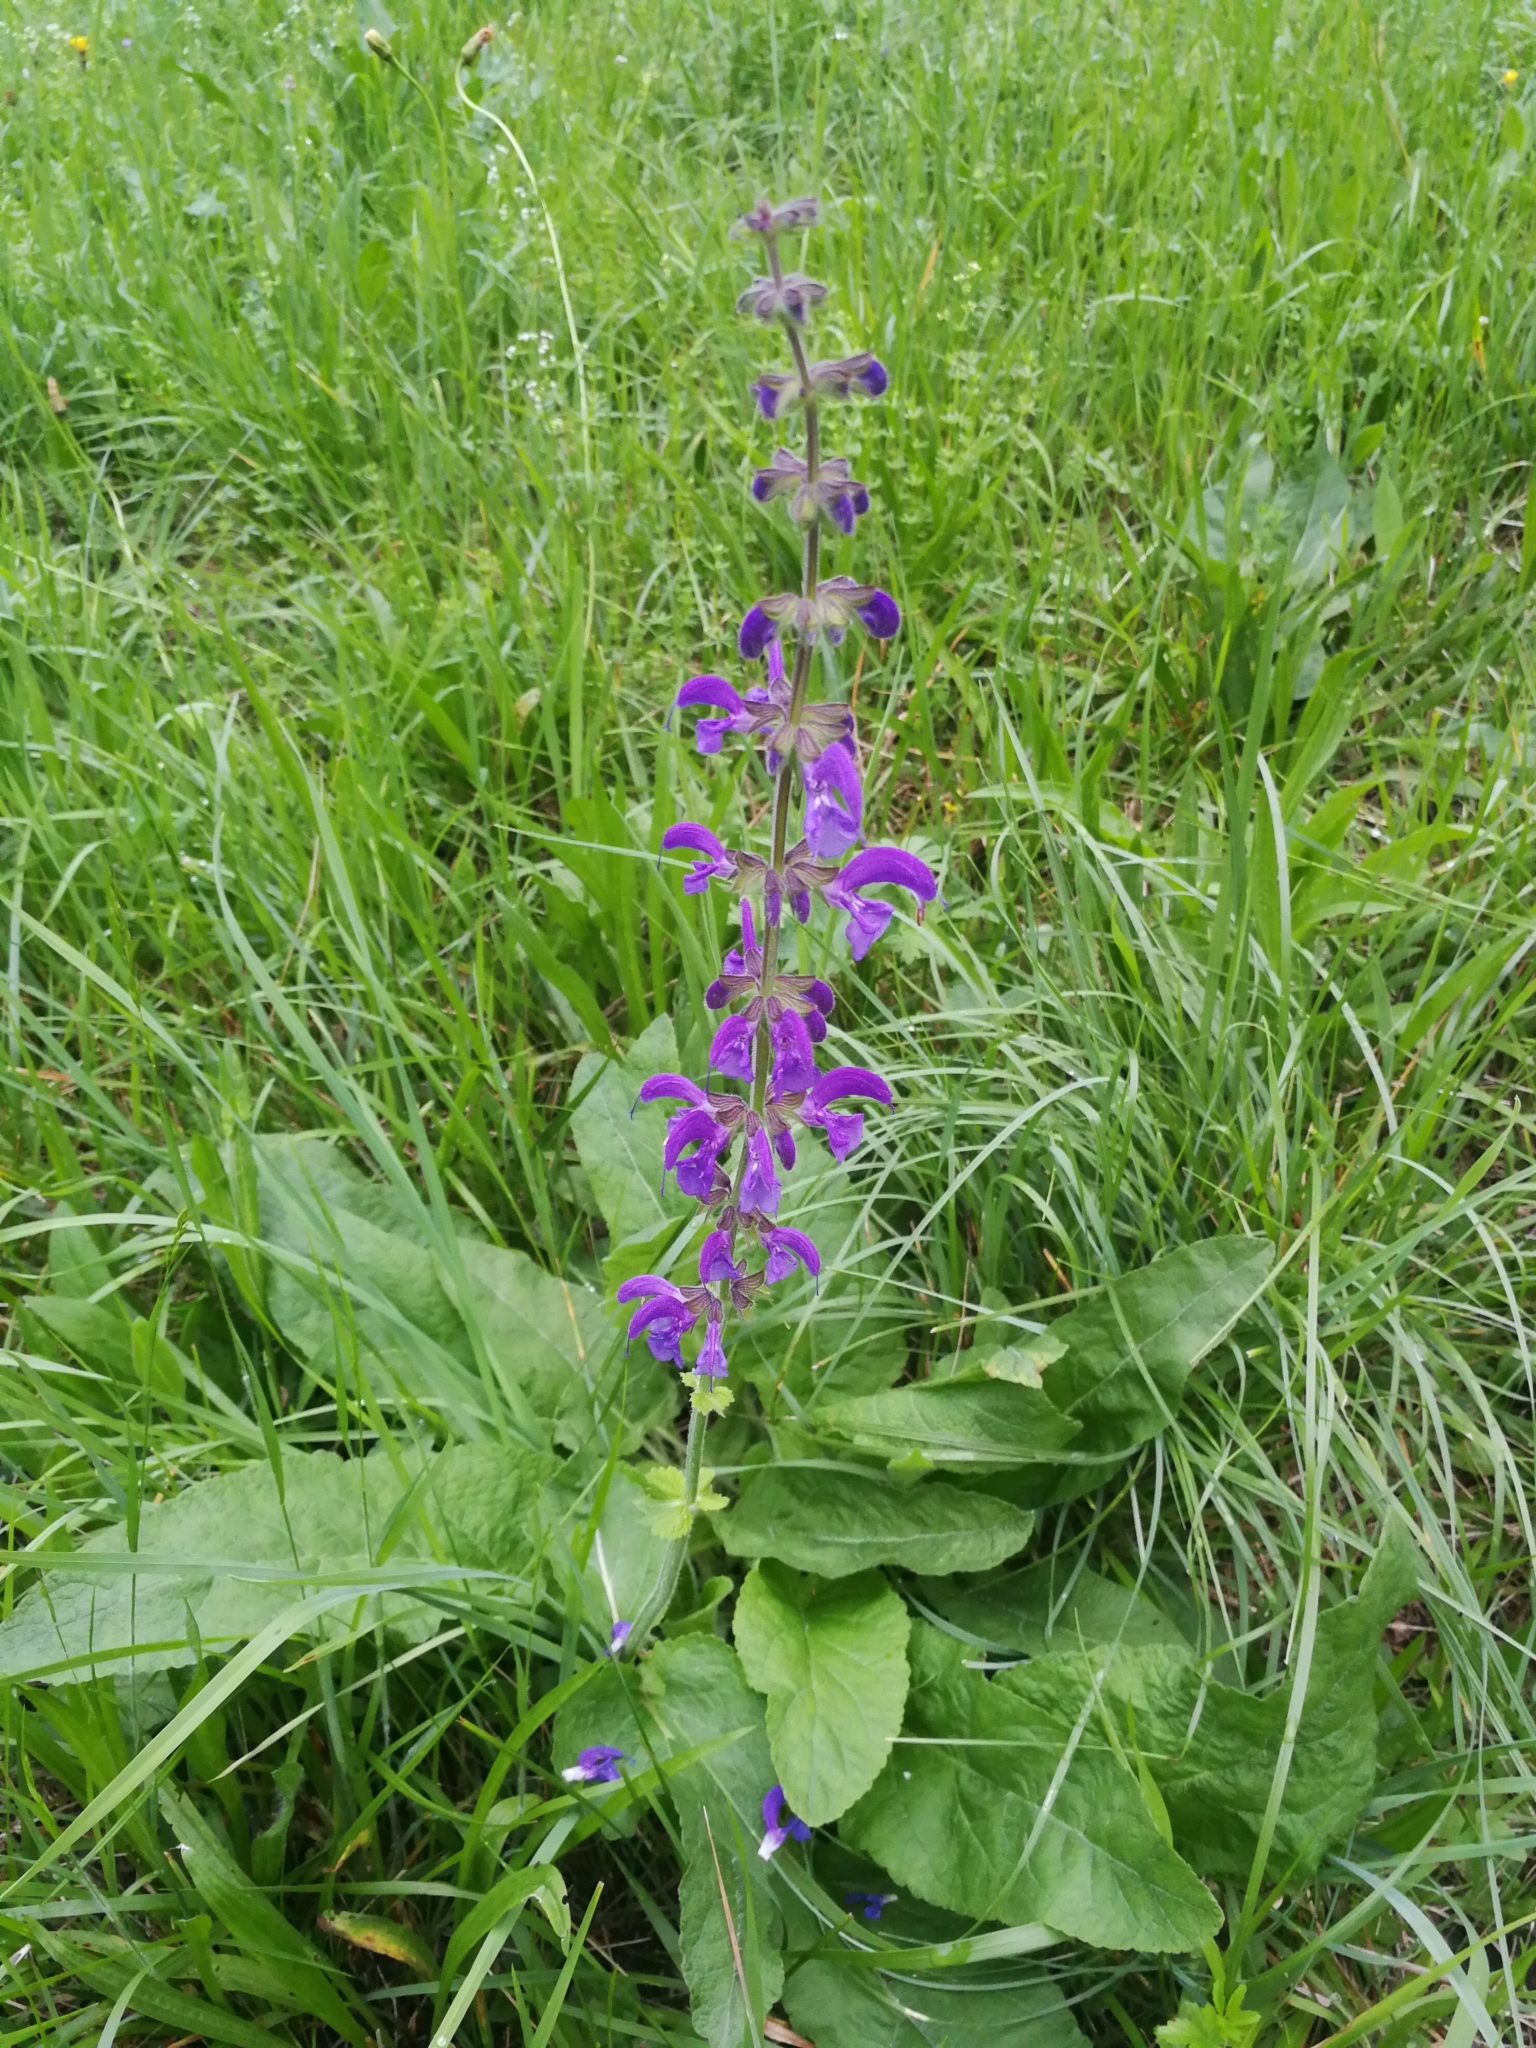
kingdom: Plantae
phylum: Tracheophyta
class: Magnoliopsida
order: Lamiales
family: Lamiaceae
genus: Salvia
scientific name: Salvia pratensis
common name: Meadow sage
